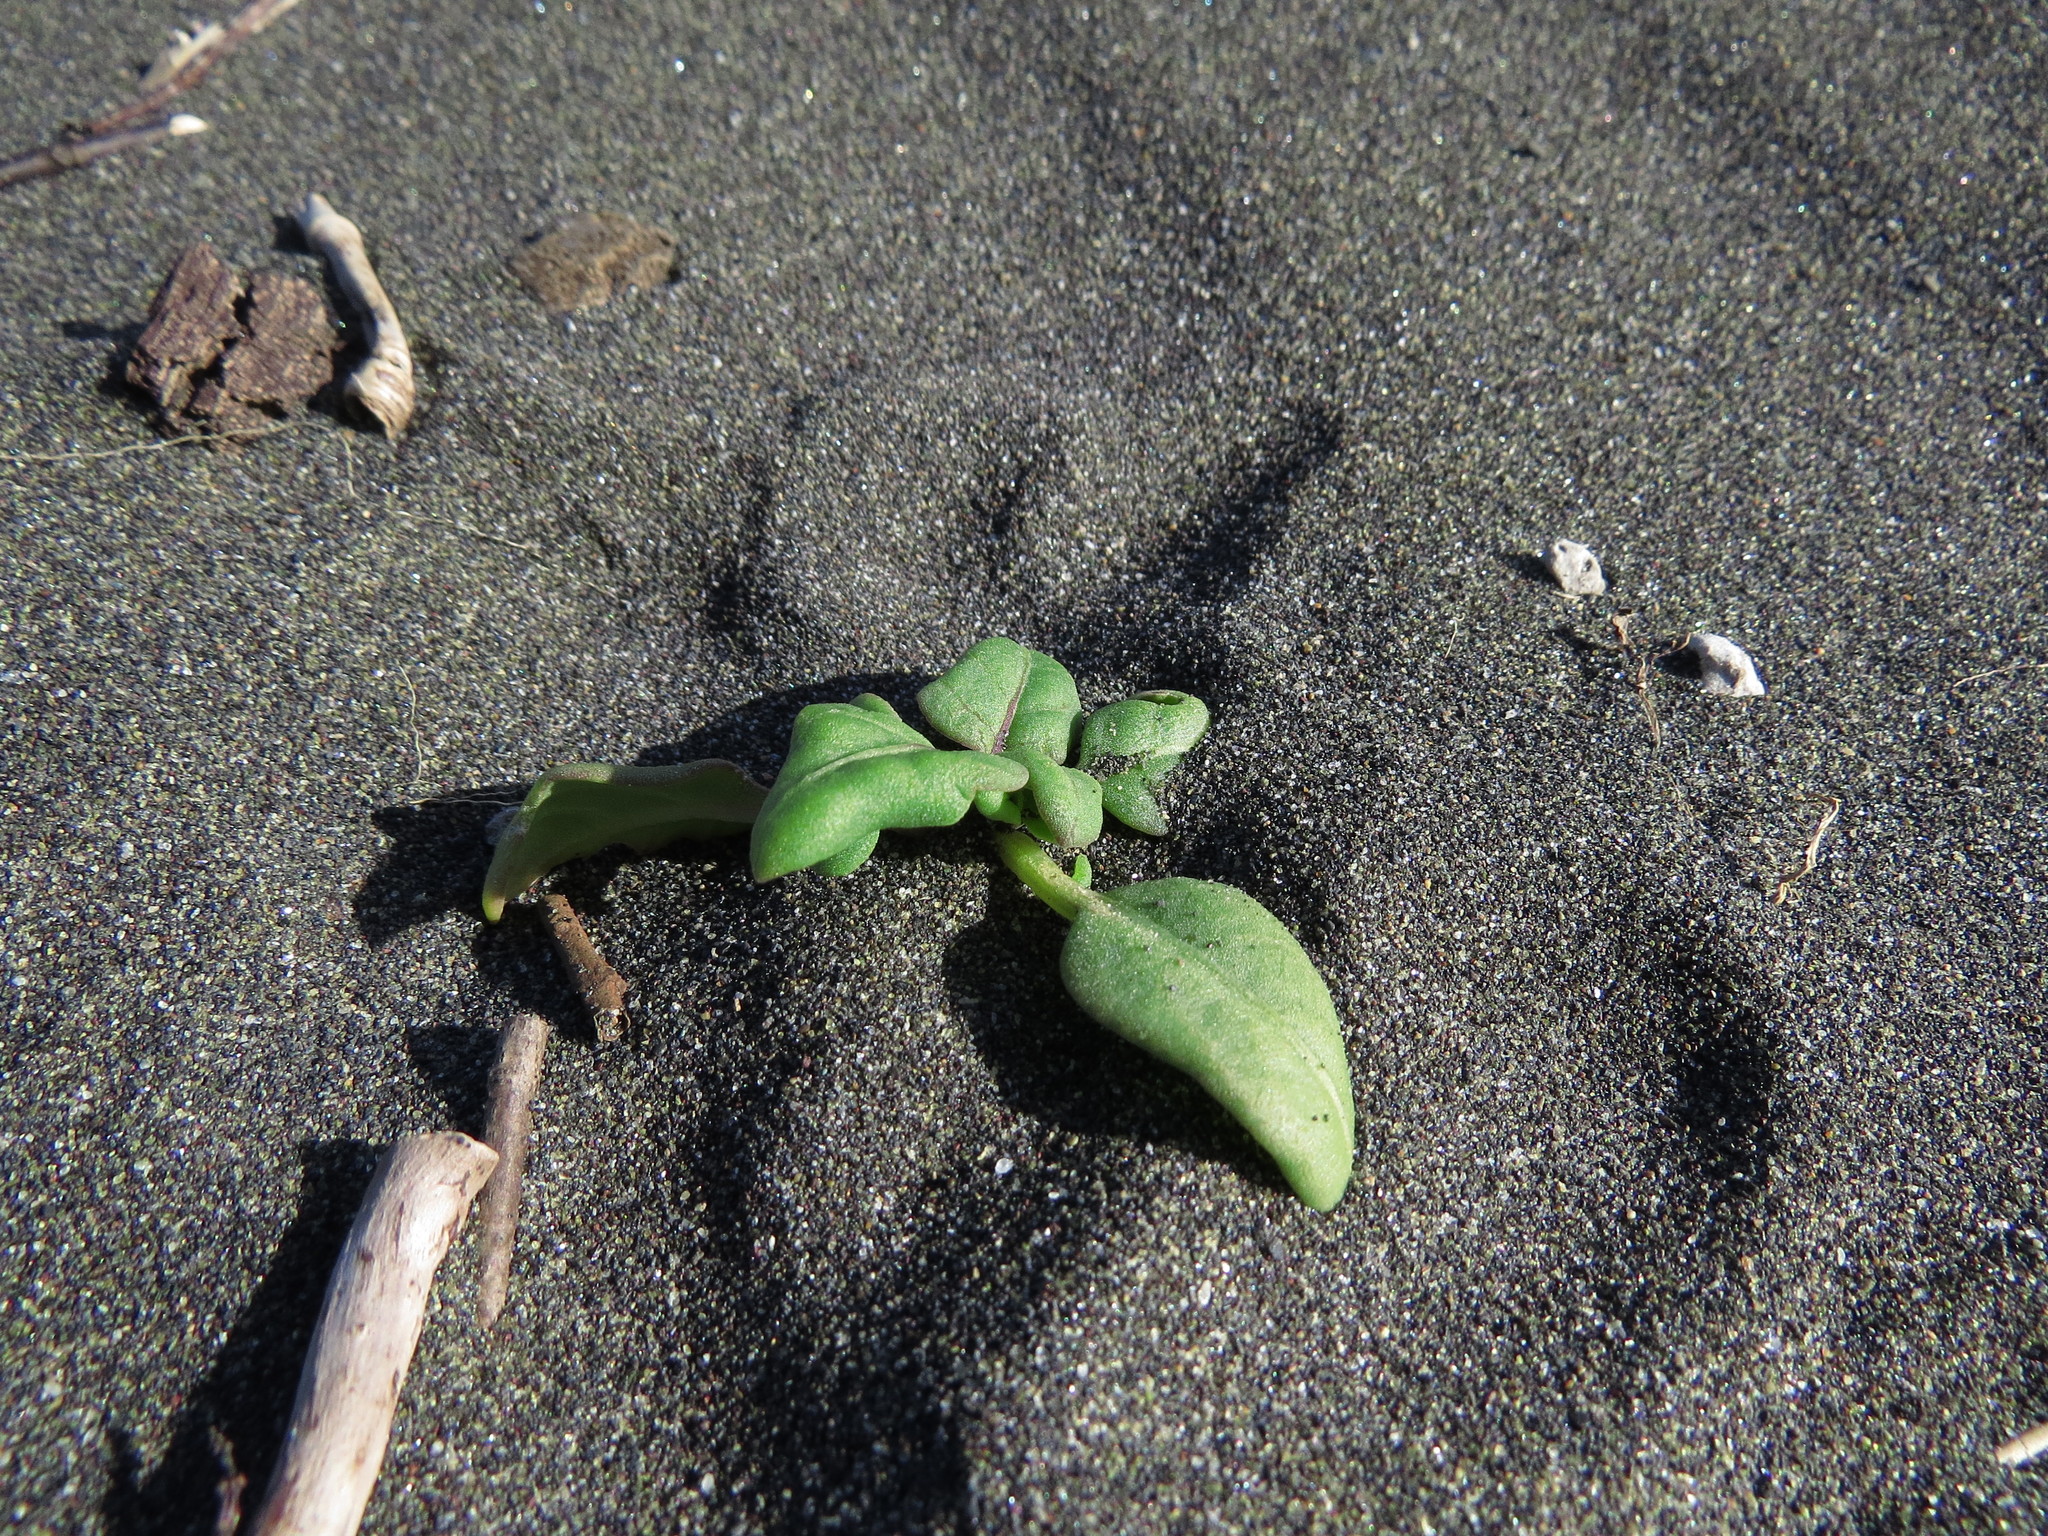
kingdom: Plantae
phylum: Tracheophyta
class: Magnoliopsida
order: Solanales
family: Solanaceae
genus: Nolana
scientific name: Nolana paradoxa
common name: Chilean-bellflower
